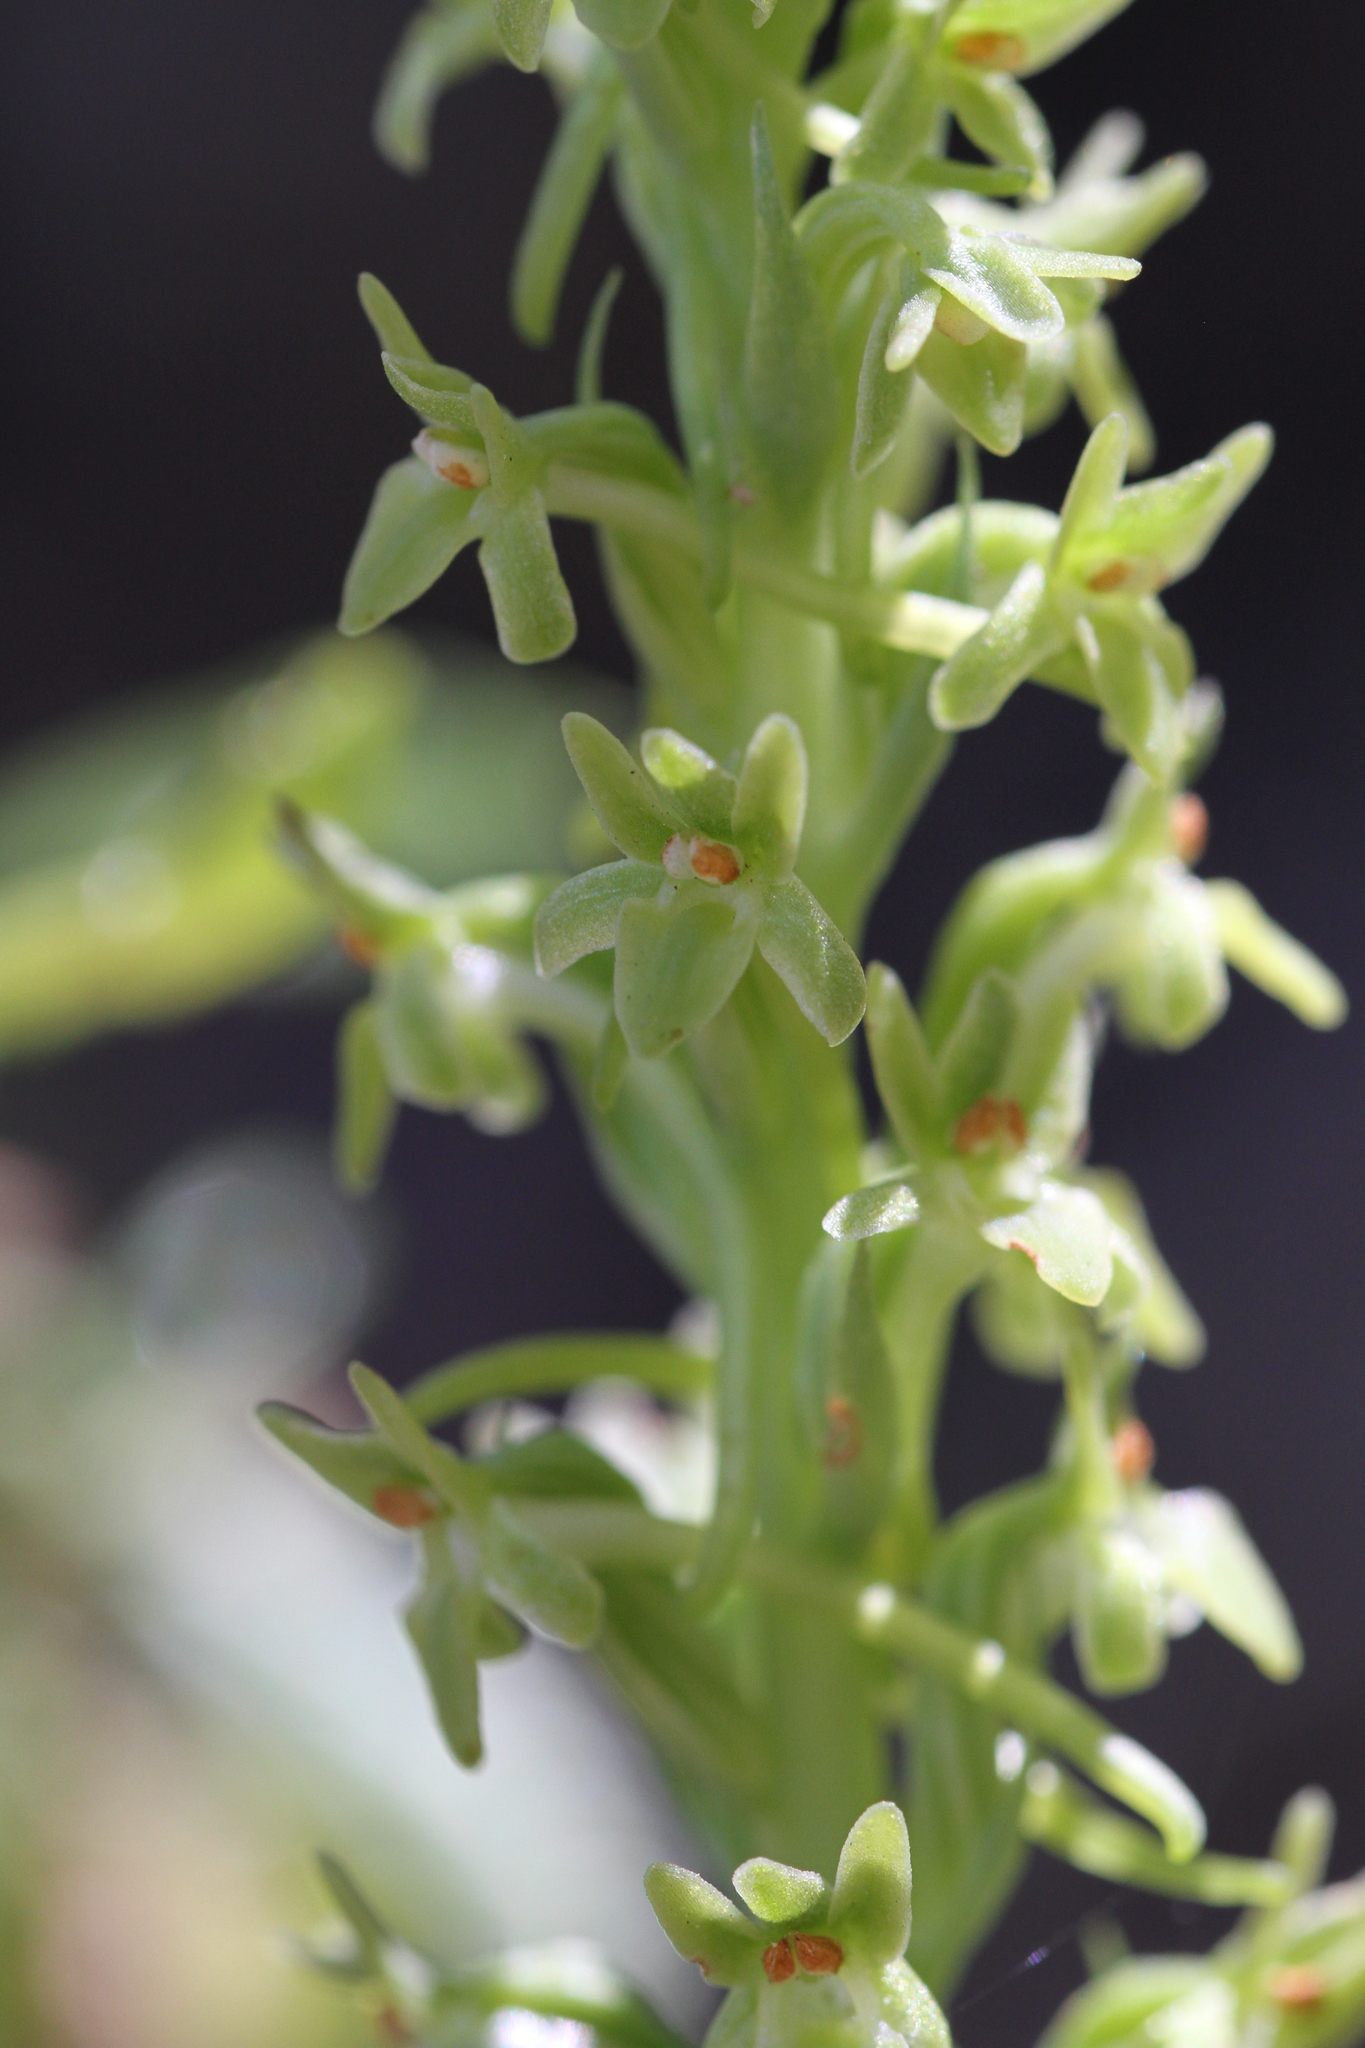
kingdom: Plantae
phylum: Tracheophyta
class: Liliopsida
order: Asparagales
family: Orchidaceae
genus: Platanthera
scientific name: Platanthera michaelii
